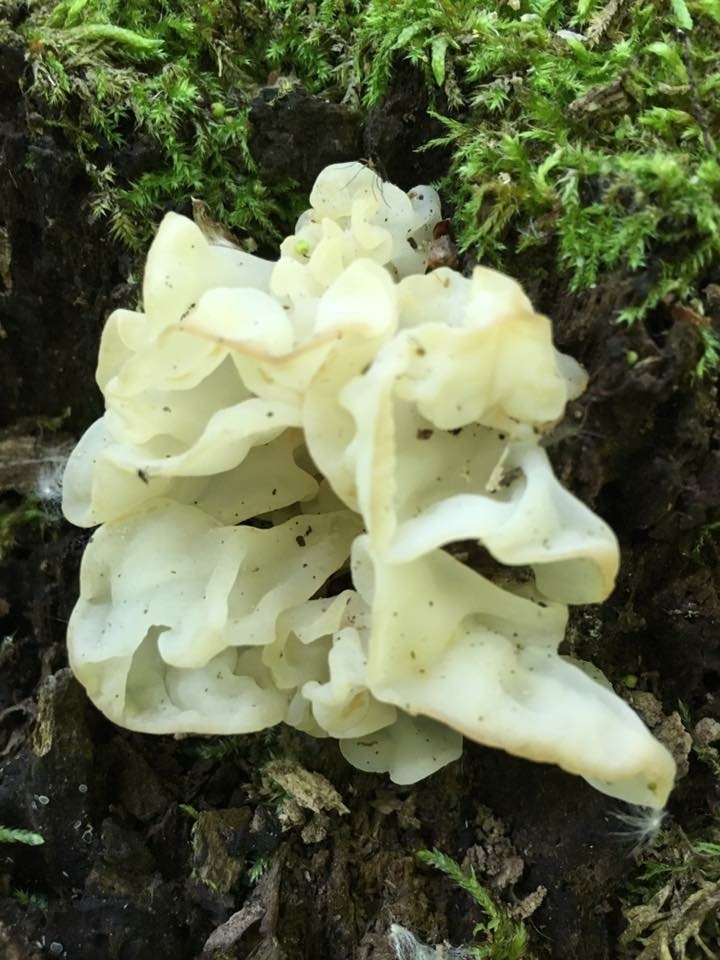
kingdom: Fungi
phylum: Basidiomycota
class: Agaricomycetes
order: Auriculariales
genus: Ductifera
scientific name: Ductifera pululahuana
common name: White jelly fungus
